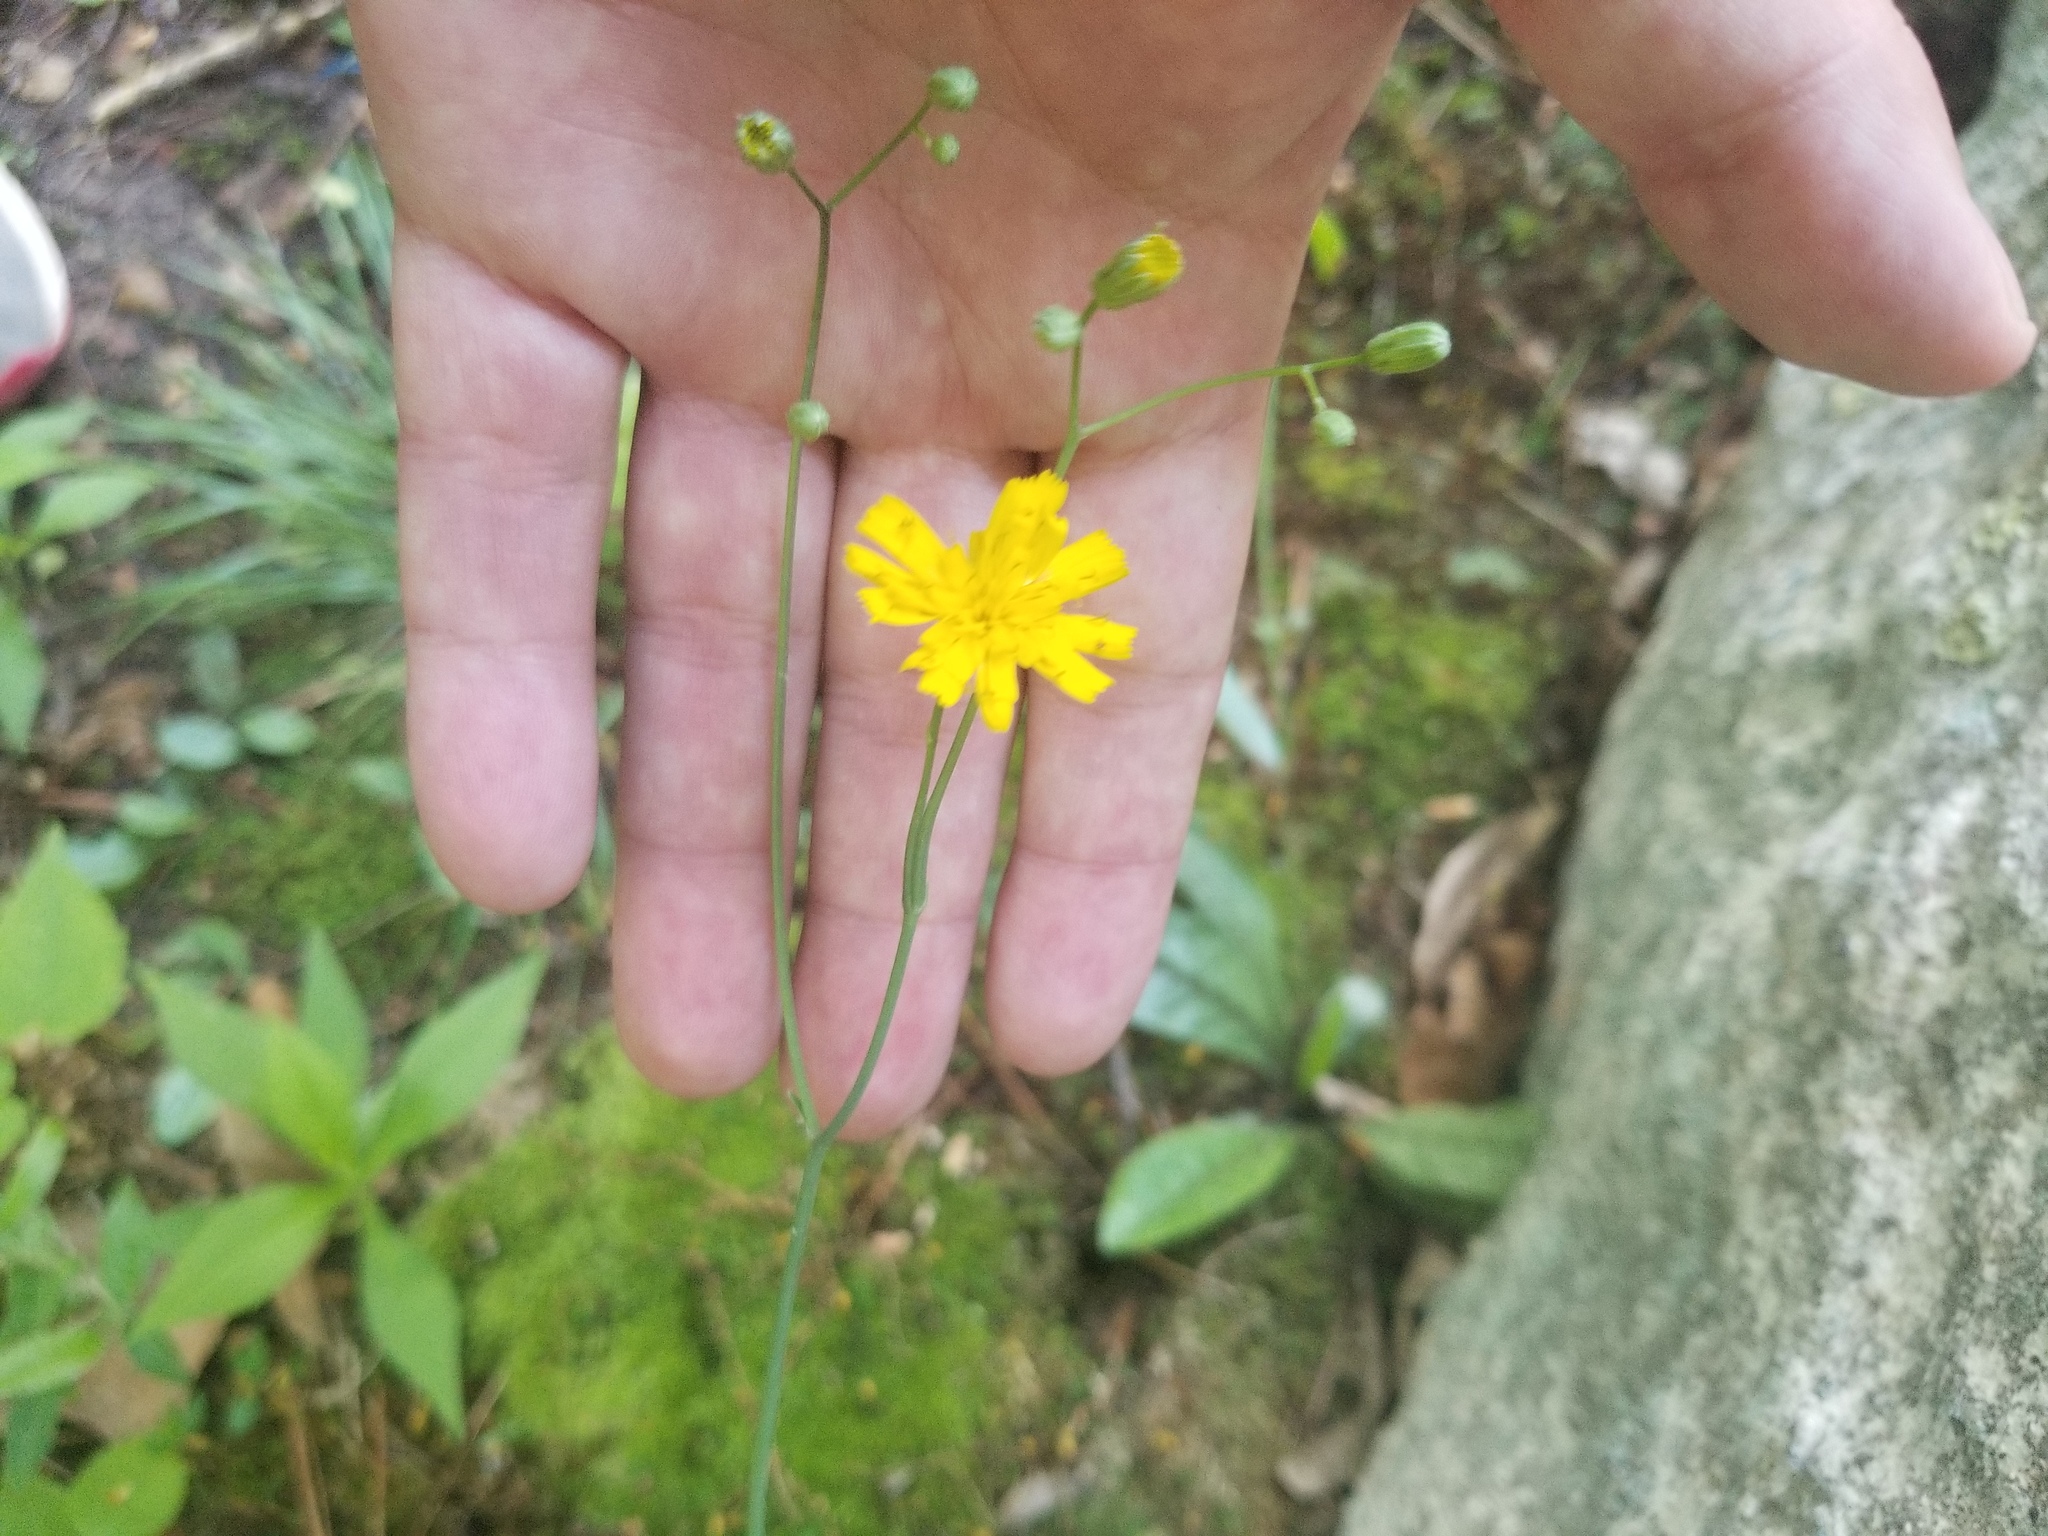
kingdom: Plantae
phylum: Tracheophyta
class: Magnoliopsida
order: Asterales
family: Asteraceae
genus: Hieracium
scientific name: Hieracium venosum
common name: Rattlesnake hawkweed
